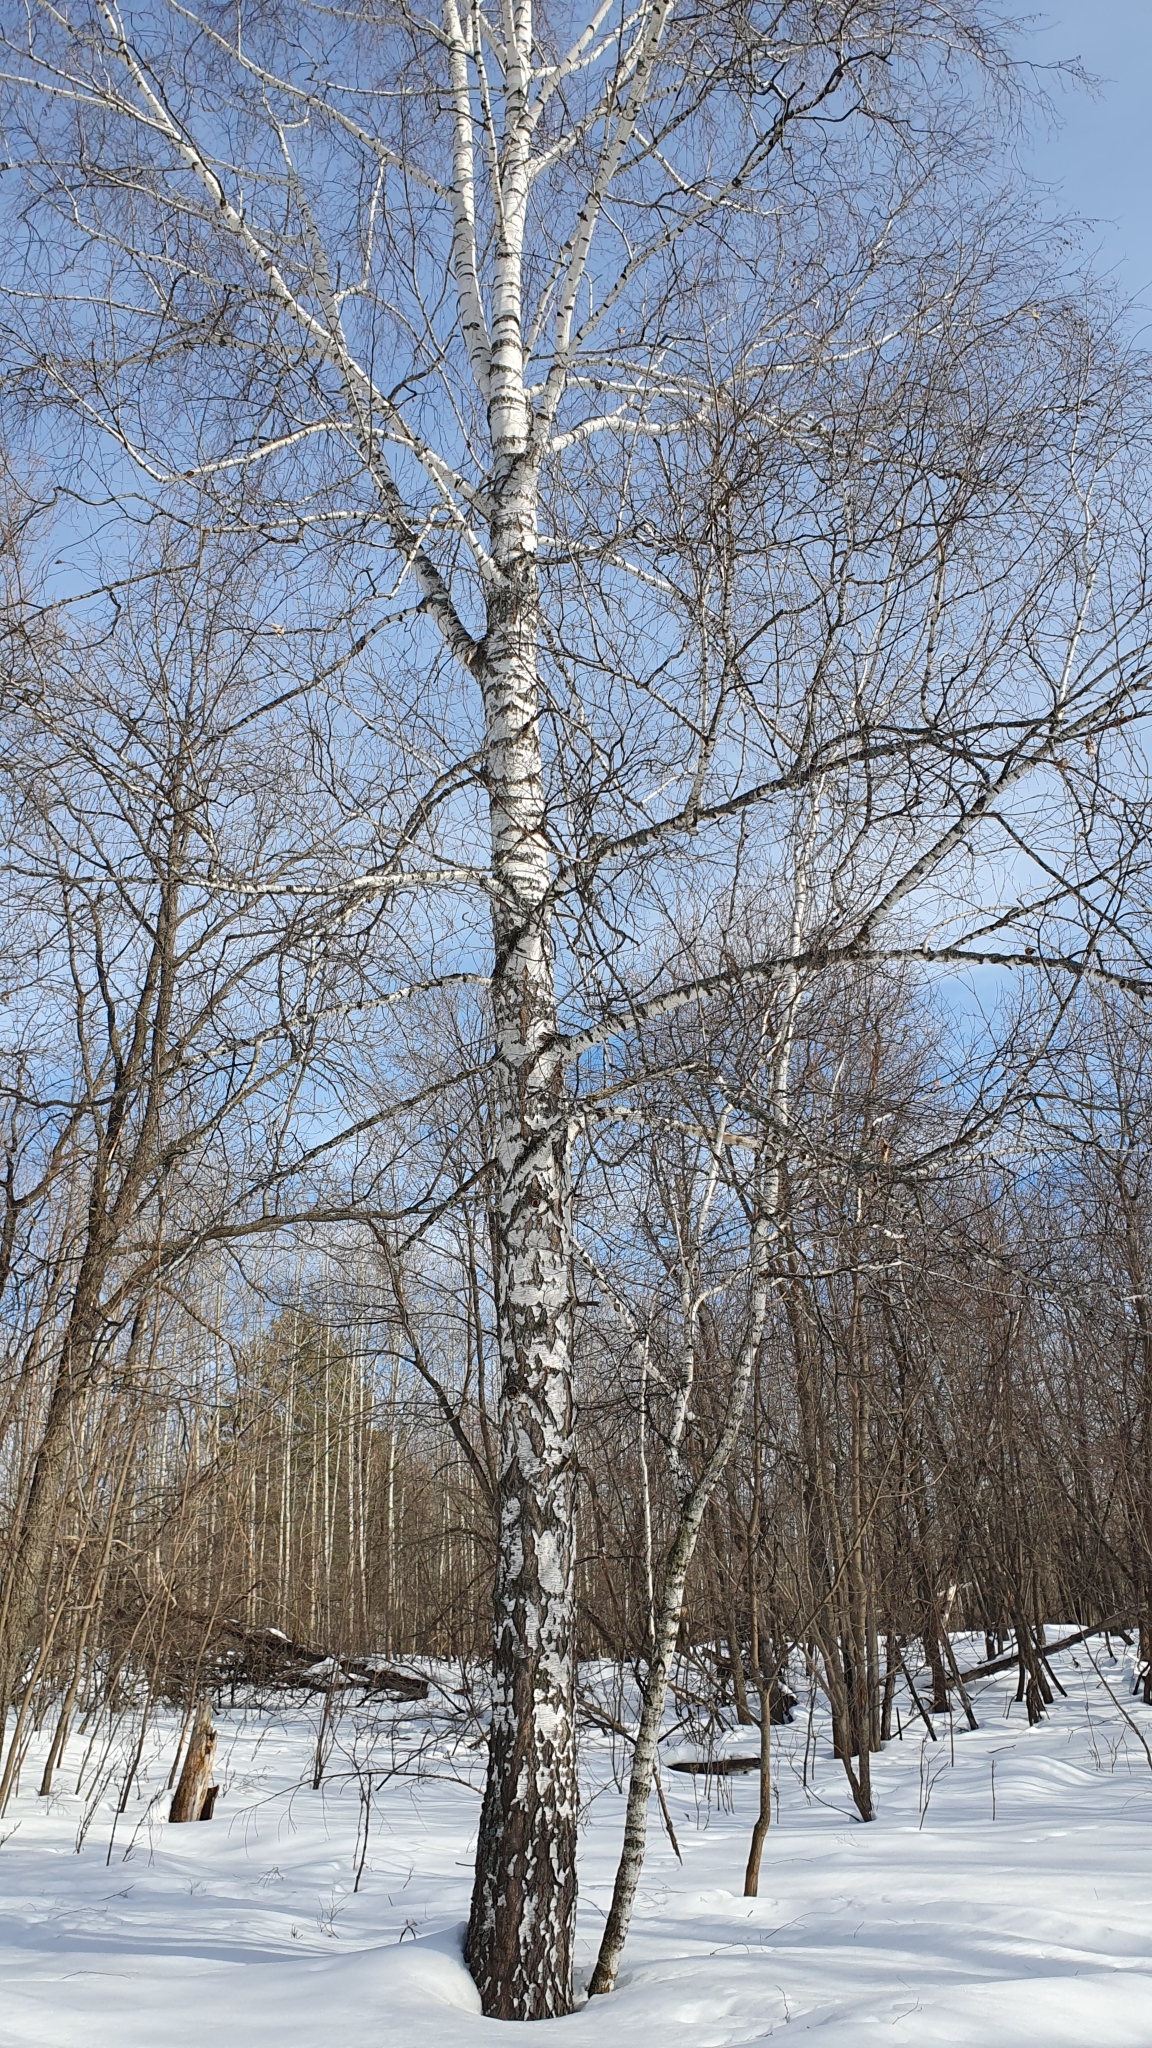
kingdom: Plantae
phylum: Tracheophyta
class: Magnoliopsida
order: Fagales
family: Betulaceae
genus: Betula
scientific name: Betula pendula
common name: Silver birch
